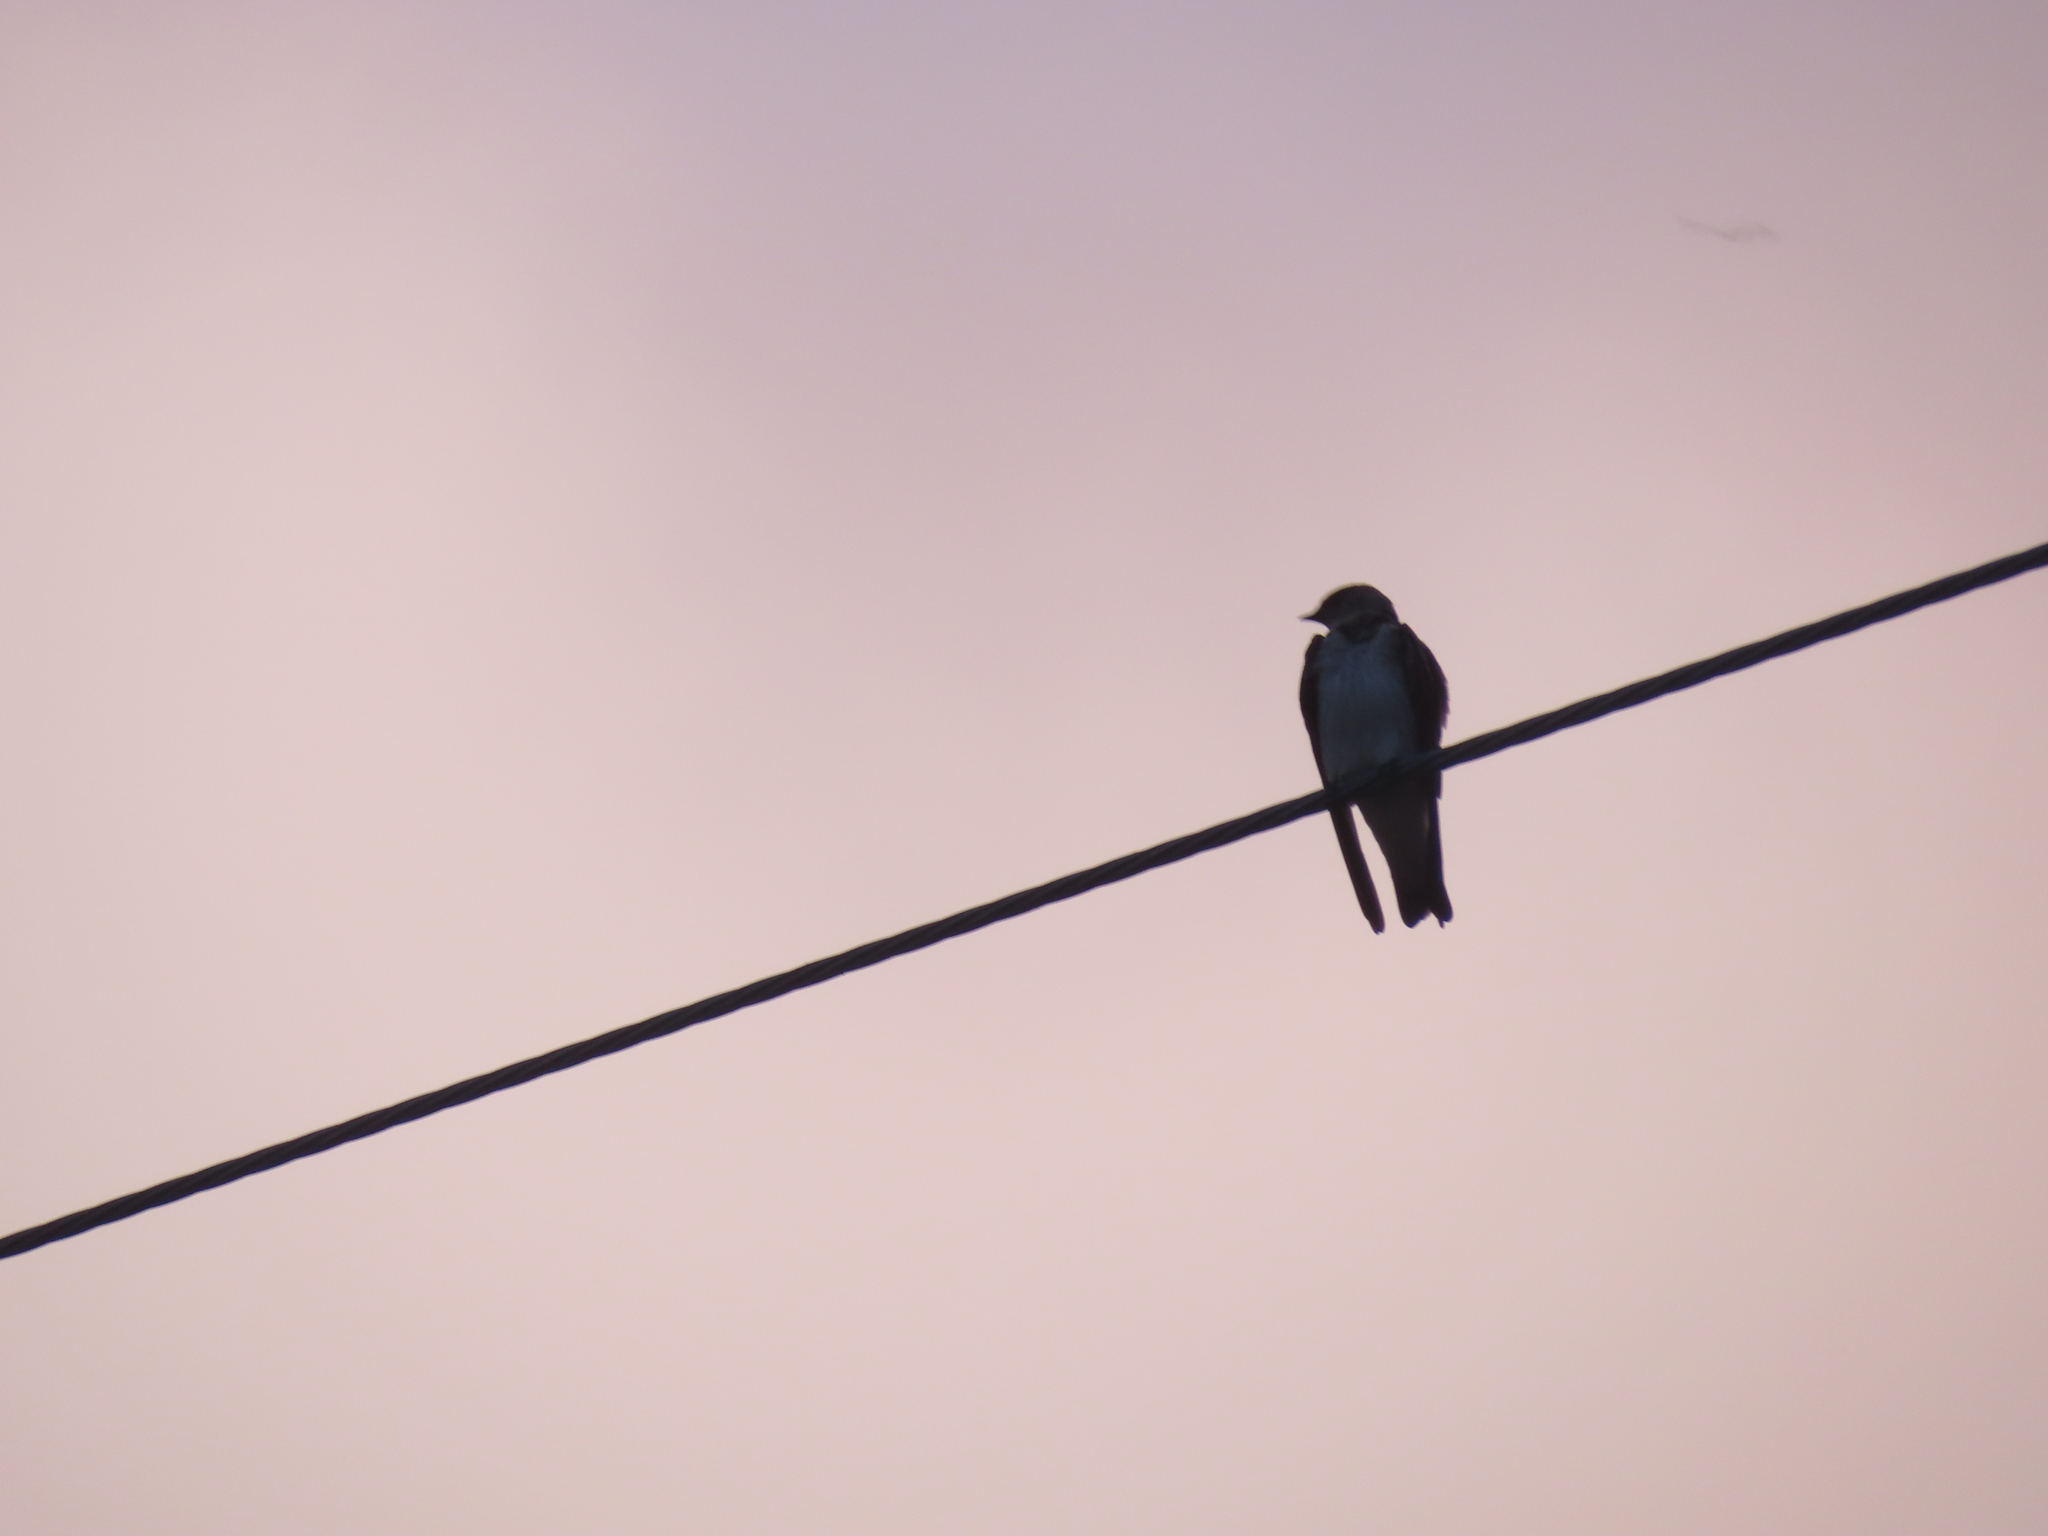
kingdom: Animalia
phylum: Chordata
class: Aves
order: Passeriformes
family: Hirundinidae
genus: Stelgidopteryx
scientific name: Stelgidopteryx serripennis
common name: Northern rough-winged swallow
